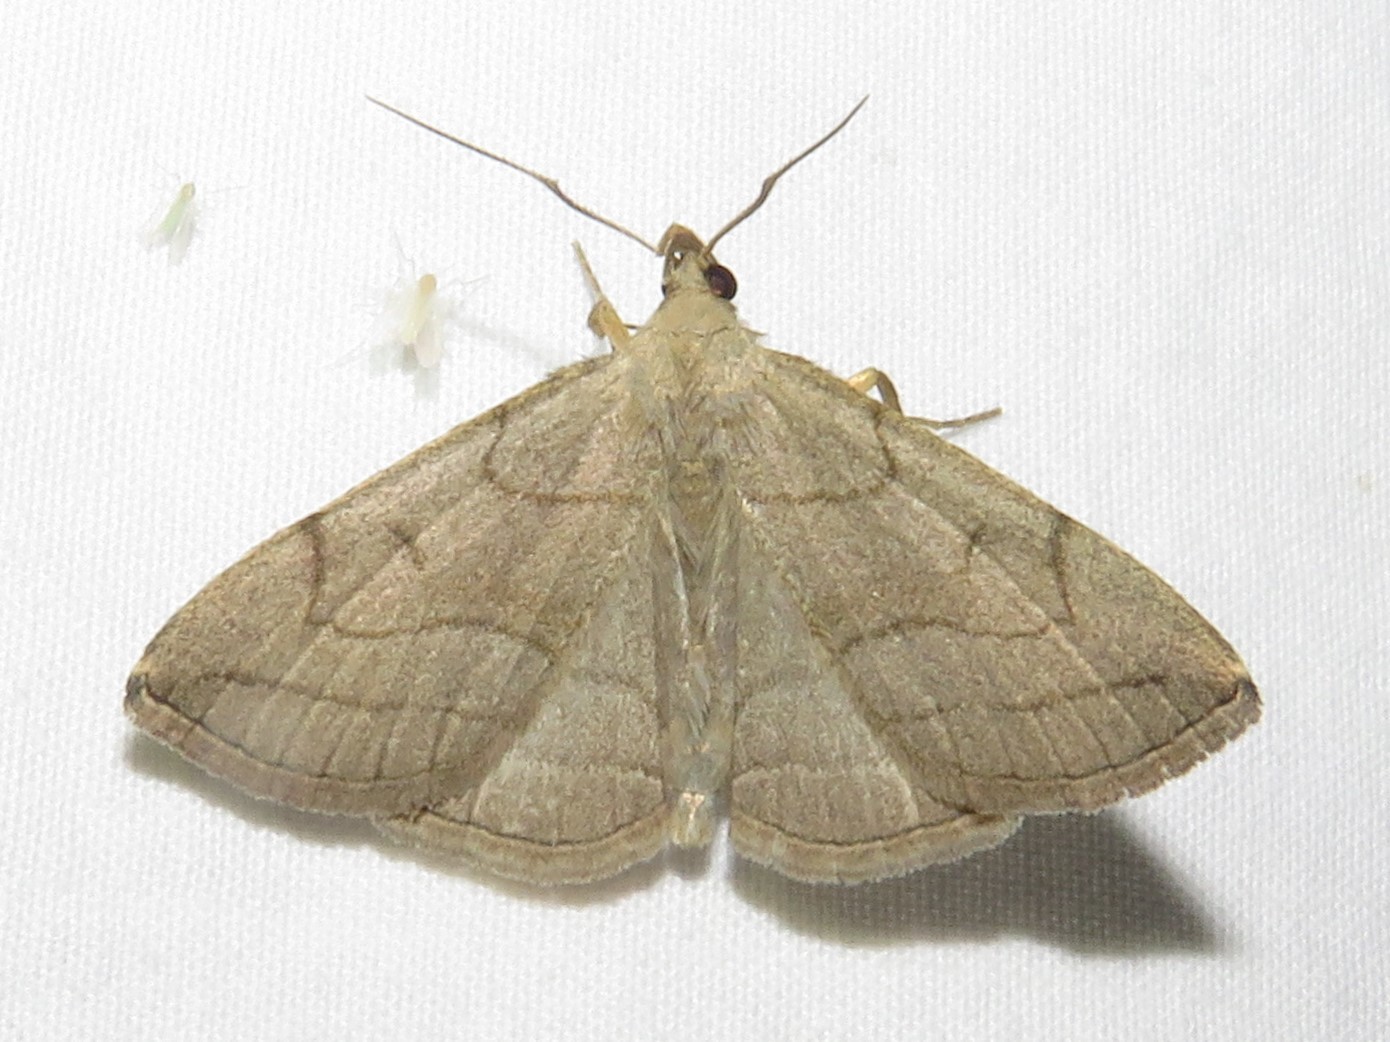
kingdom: Animalia
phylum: Arthropoda
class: Insecta
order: Lepidoptera
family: Erebidae
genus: Zanclognatha
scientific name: Zanclognatha pedipilalis
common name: Grayish fan-foot
